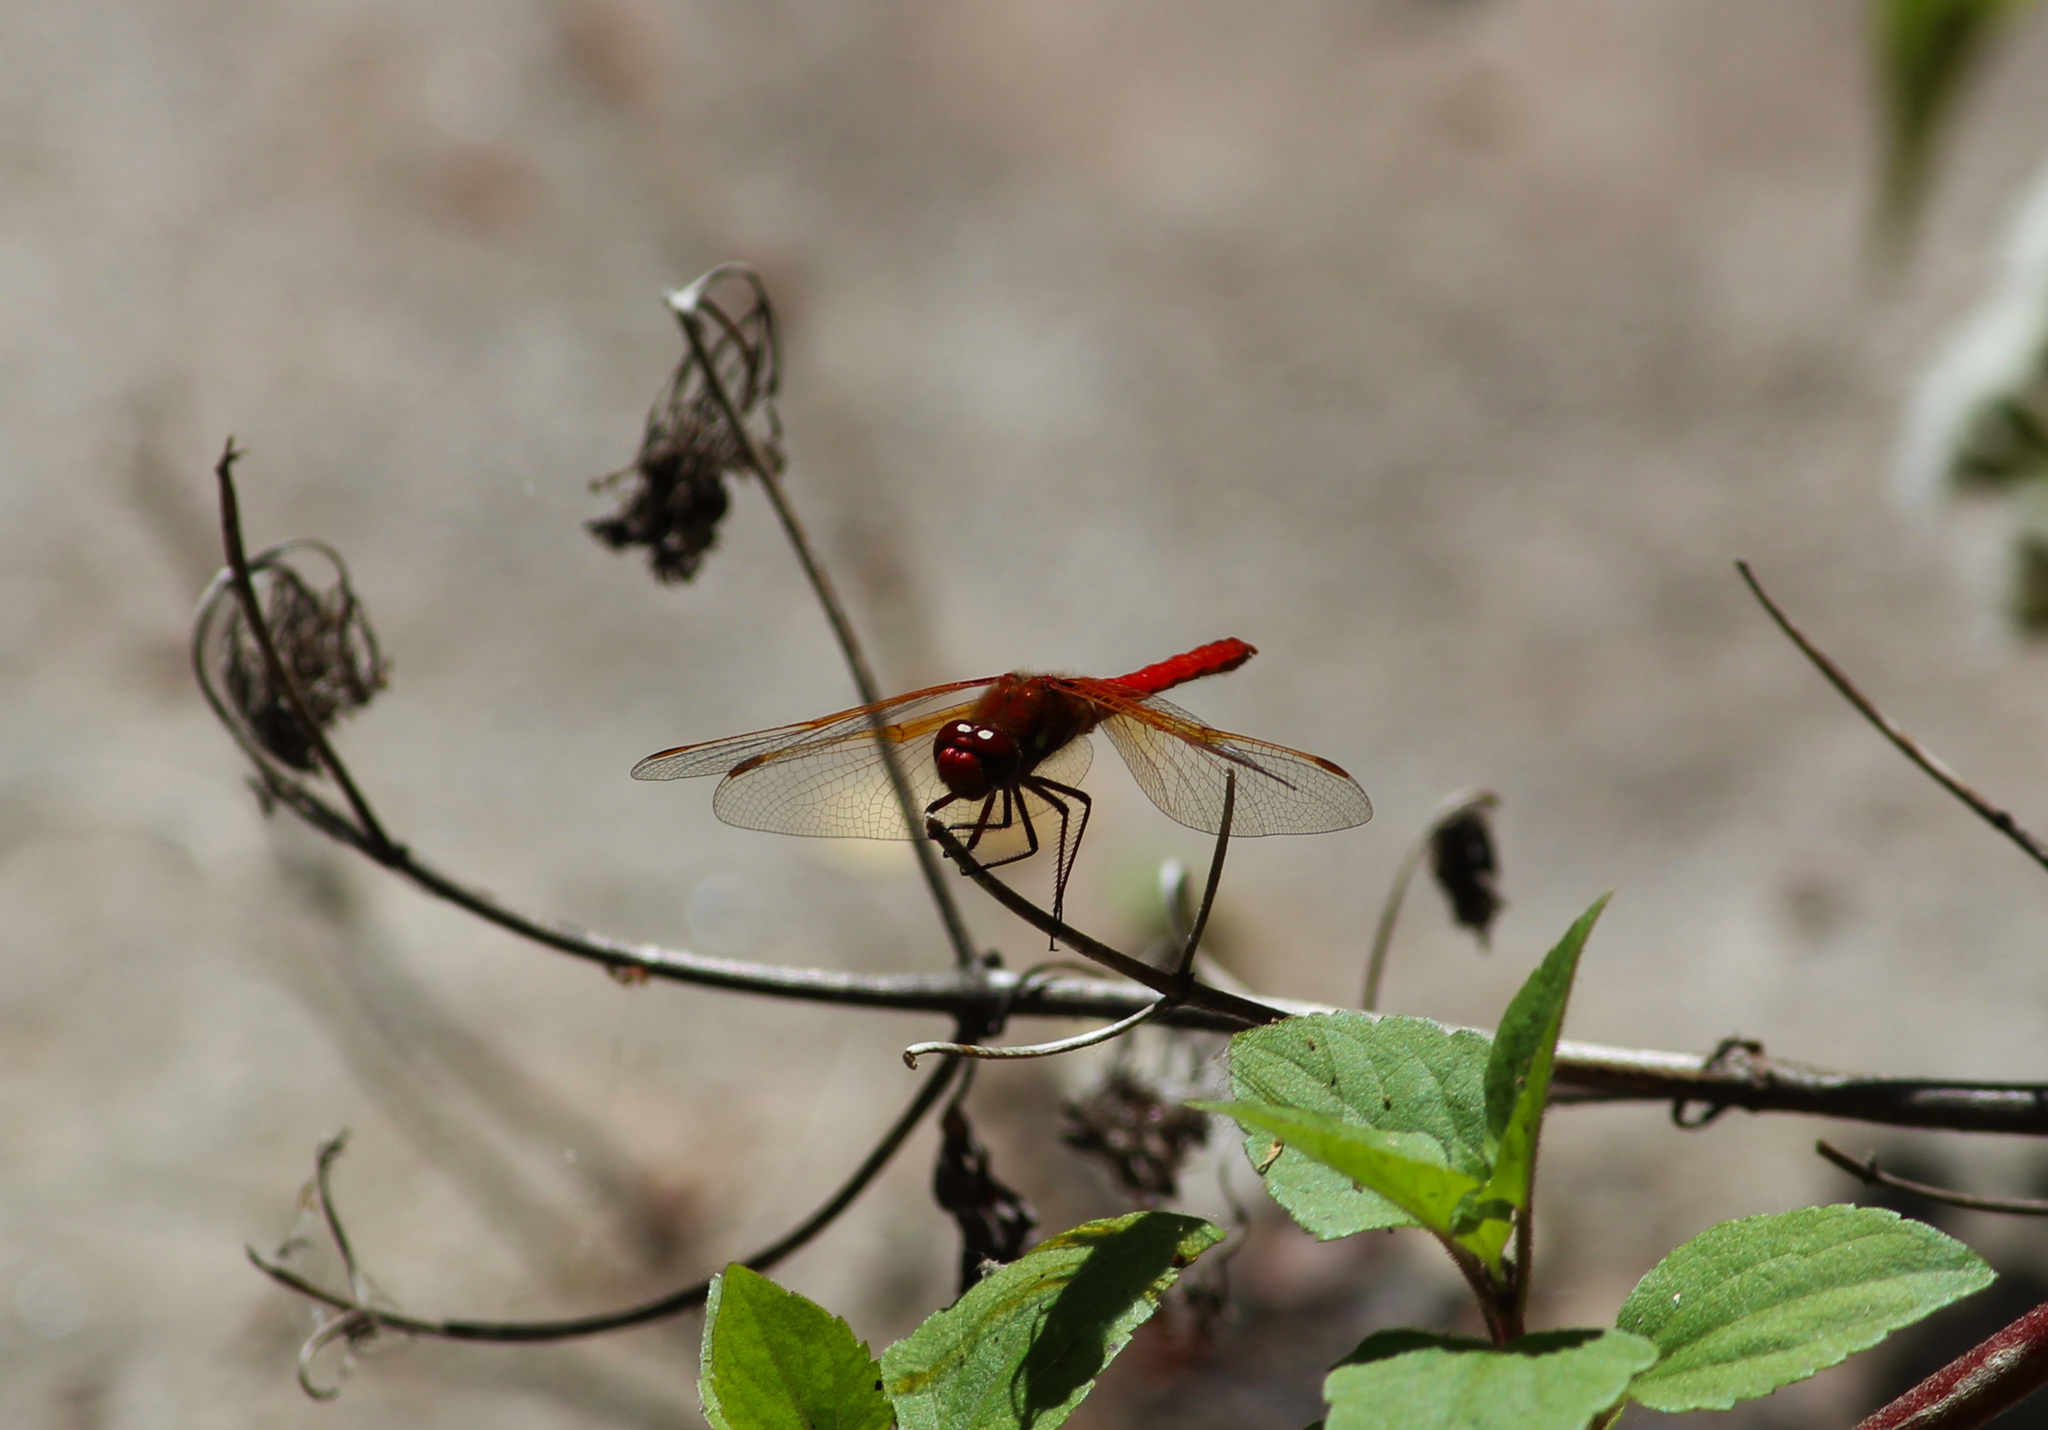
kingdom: Animalia
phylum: Arthropoda
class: Insecta
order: Odonata
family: Libellulidae
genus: Sympetrum
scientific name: Sympetrum illotum
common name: Cardinal meadowhawk
